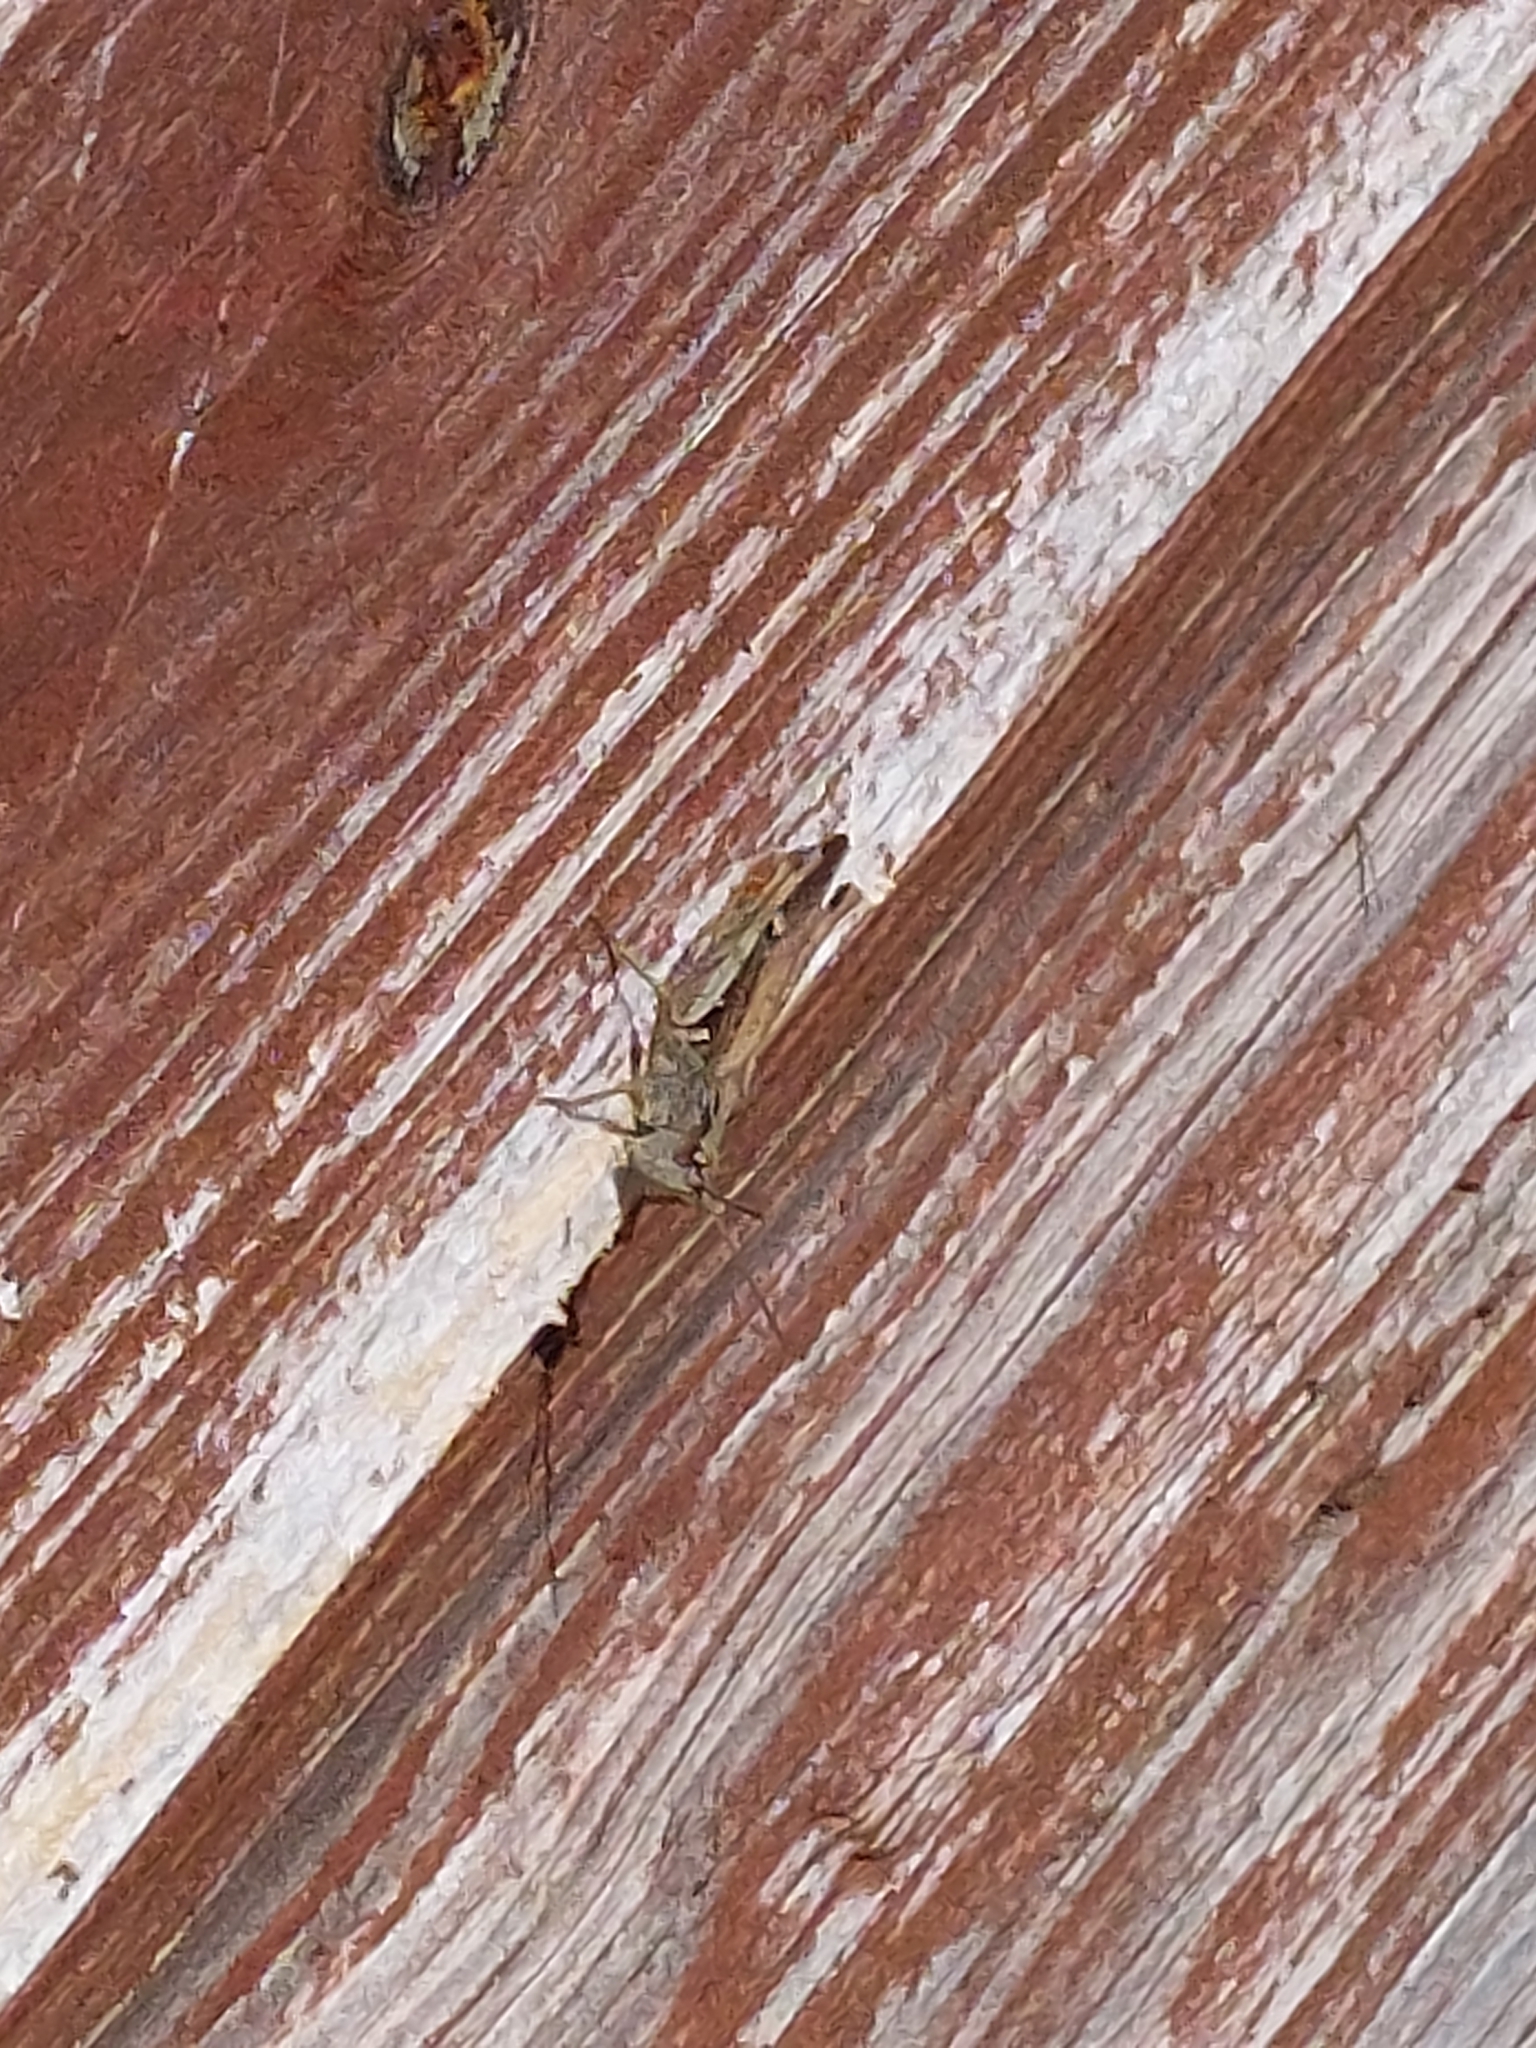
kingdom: Animalia
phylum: Arthropoda
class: Insecta
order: Orthoptera
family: Acrididae
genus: Chorthippus
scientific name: Chorthippus brunneus
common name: Field grasshopper
